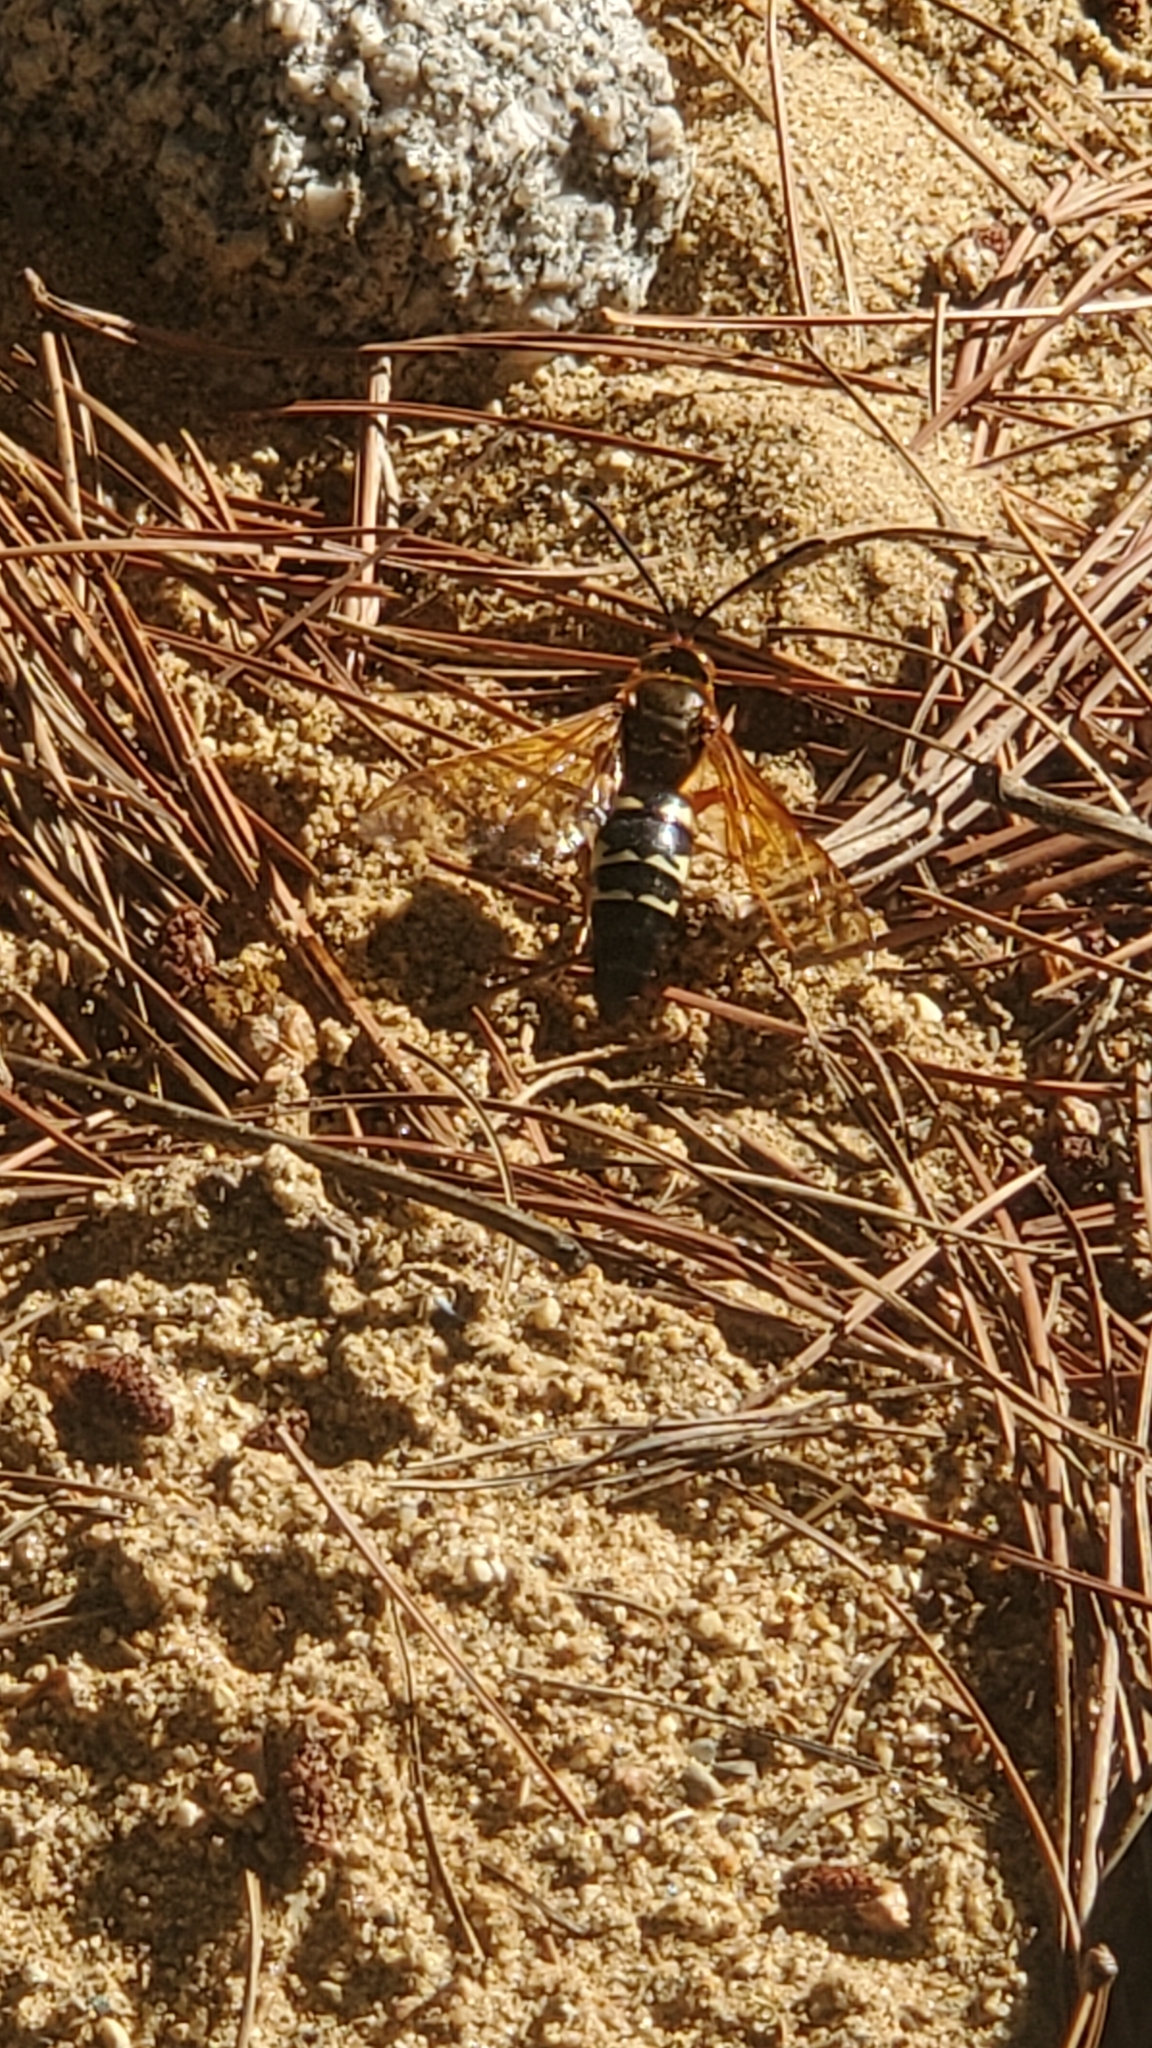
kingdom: Animalia
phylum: Arthropoda
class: Insecta
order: Hymenoptera
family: Crabronidae
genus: Sphecius
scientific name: Sphecius speciosus
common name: Cicada killer
